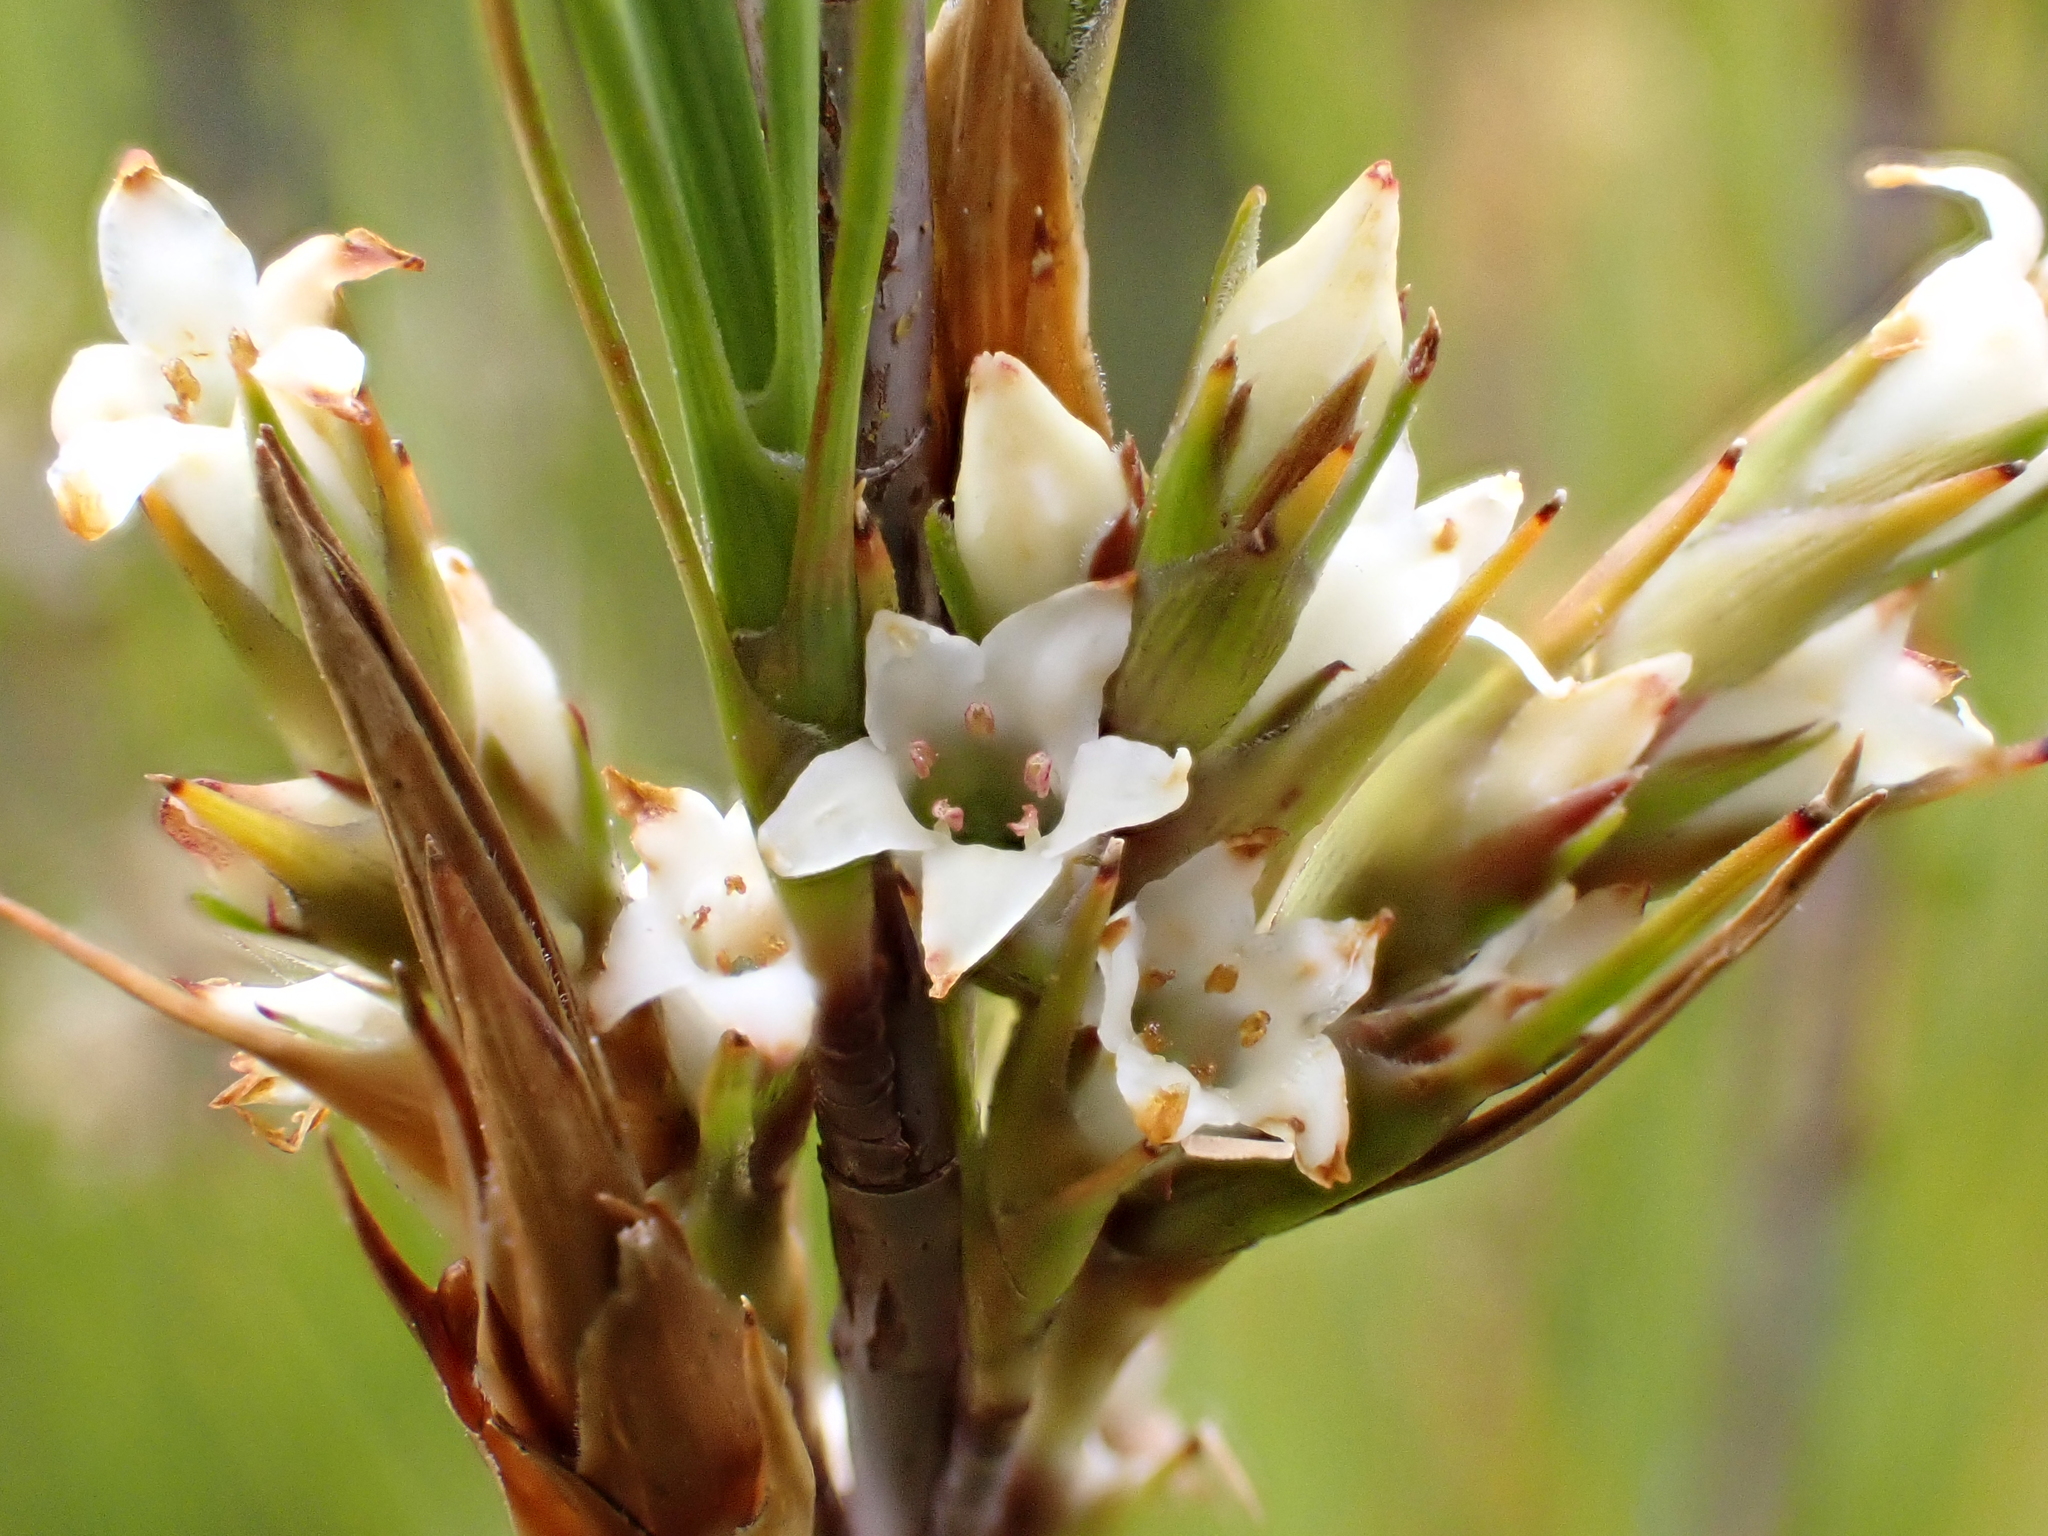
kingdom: Plantae
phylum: Tracheophyta
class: Magnoliopsida
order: Ericales
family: Ericaceae
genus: Dracophyllum
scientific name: Dracophyllum filifolium
